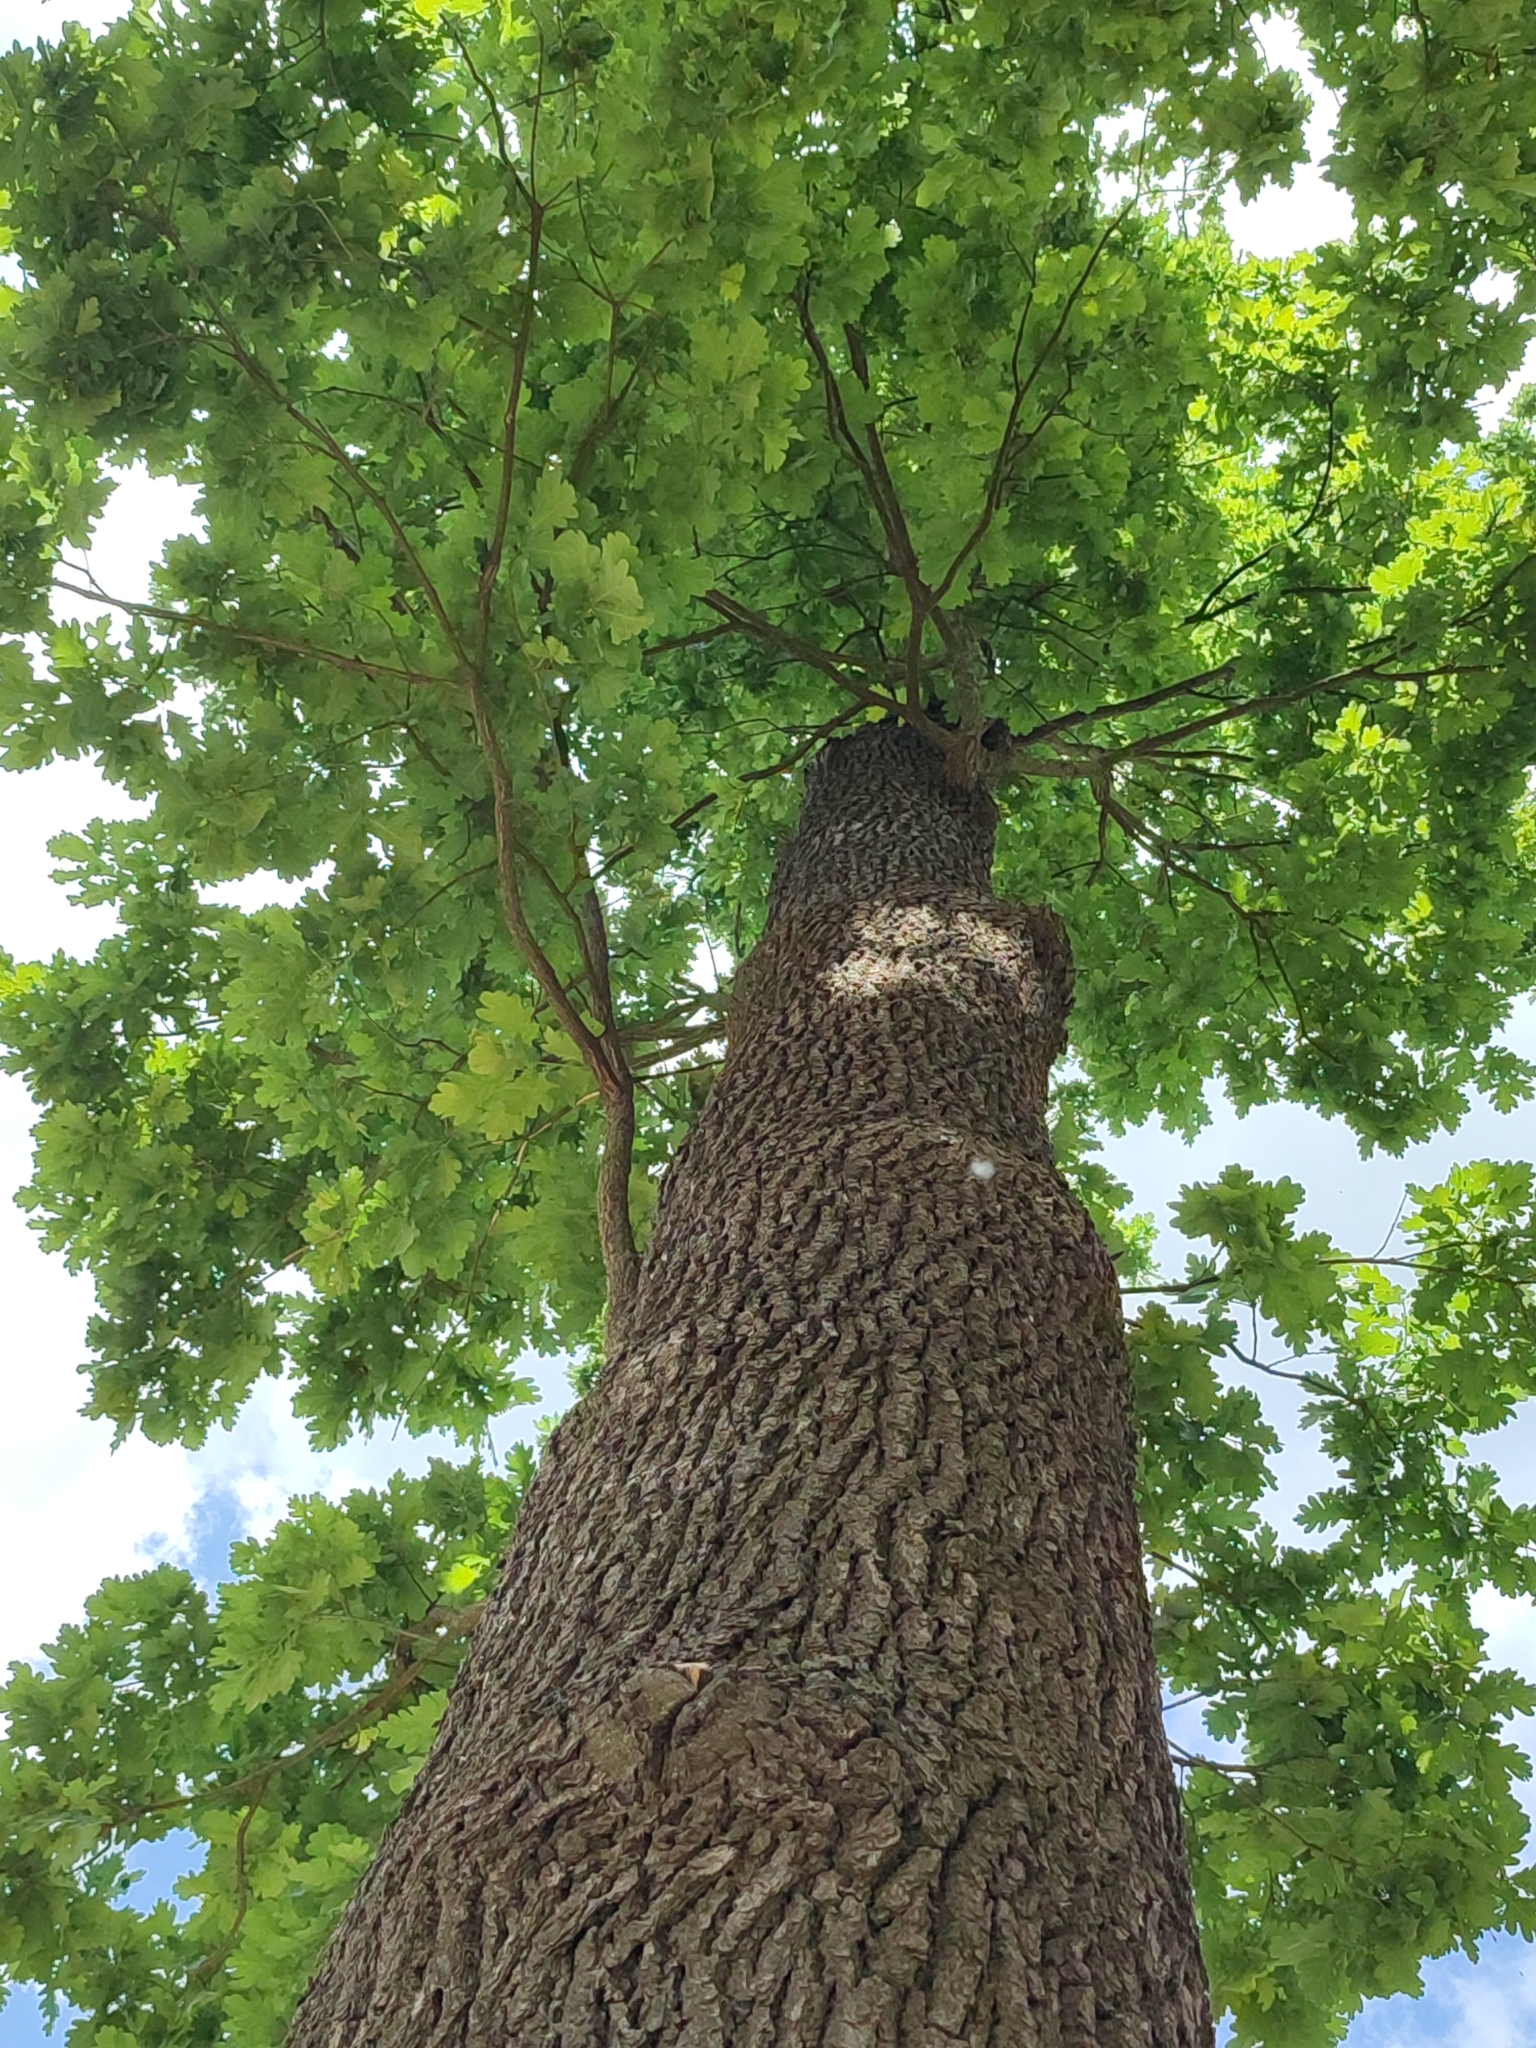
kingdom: Plantae
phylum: Tracheophyta
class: Magnoliopsida
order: Fagales
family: Fagaceae
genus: Quercus
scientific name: Quercus robur
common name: Pedunculate oak
